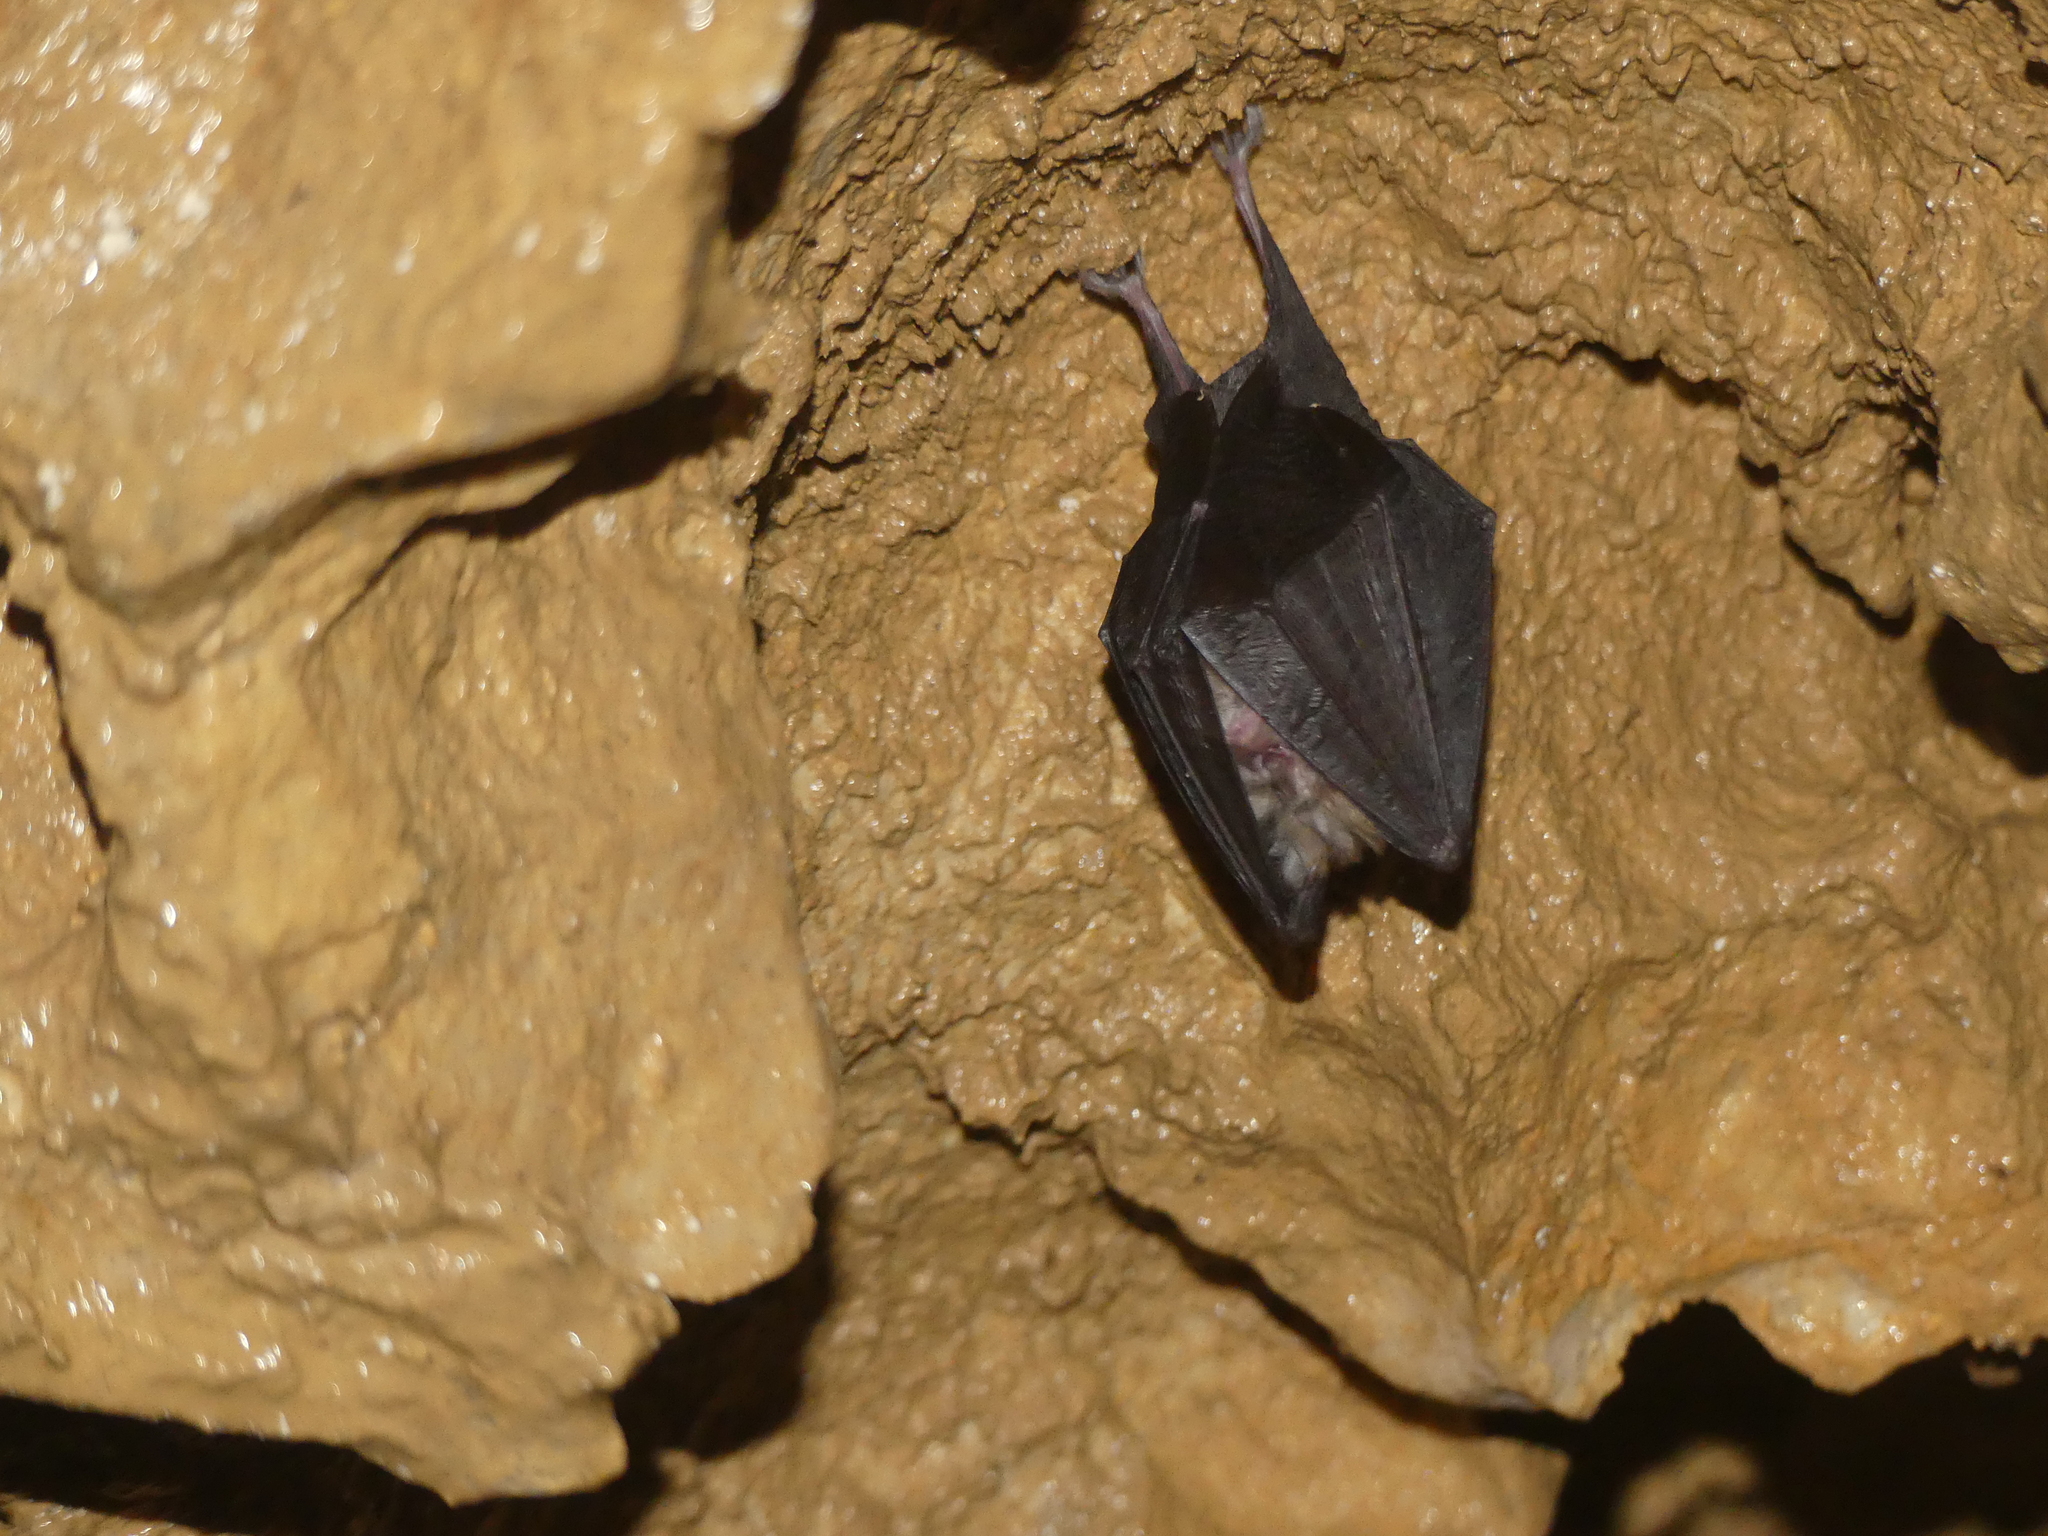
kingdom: Animalia
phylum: Chordata
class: Mammalia
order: Chiroptera
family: Rhinolophidae
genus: Rhinolophus
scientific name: Rhinolophus hipposideros
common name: Lesser horseshoe bat
